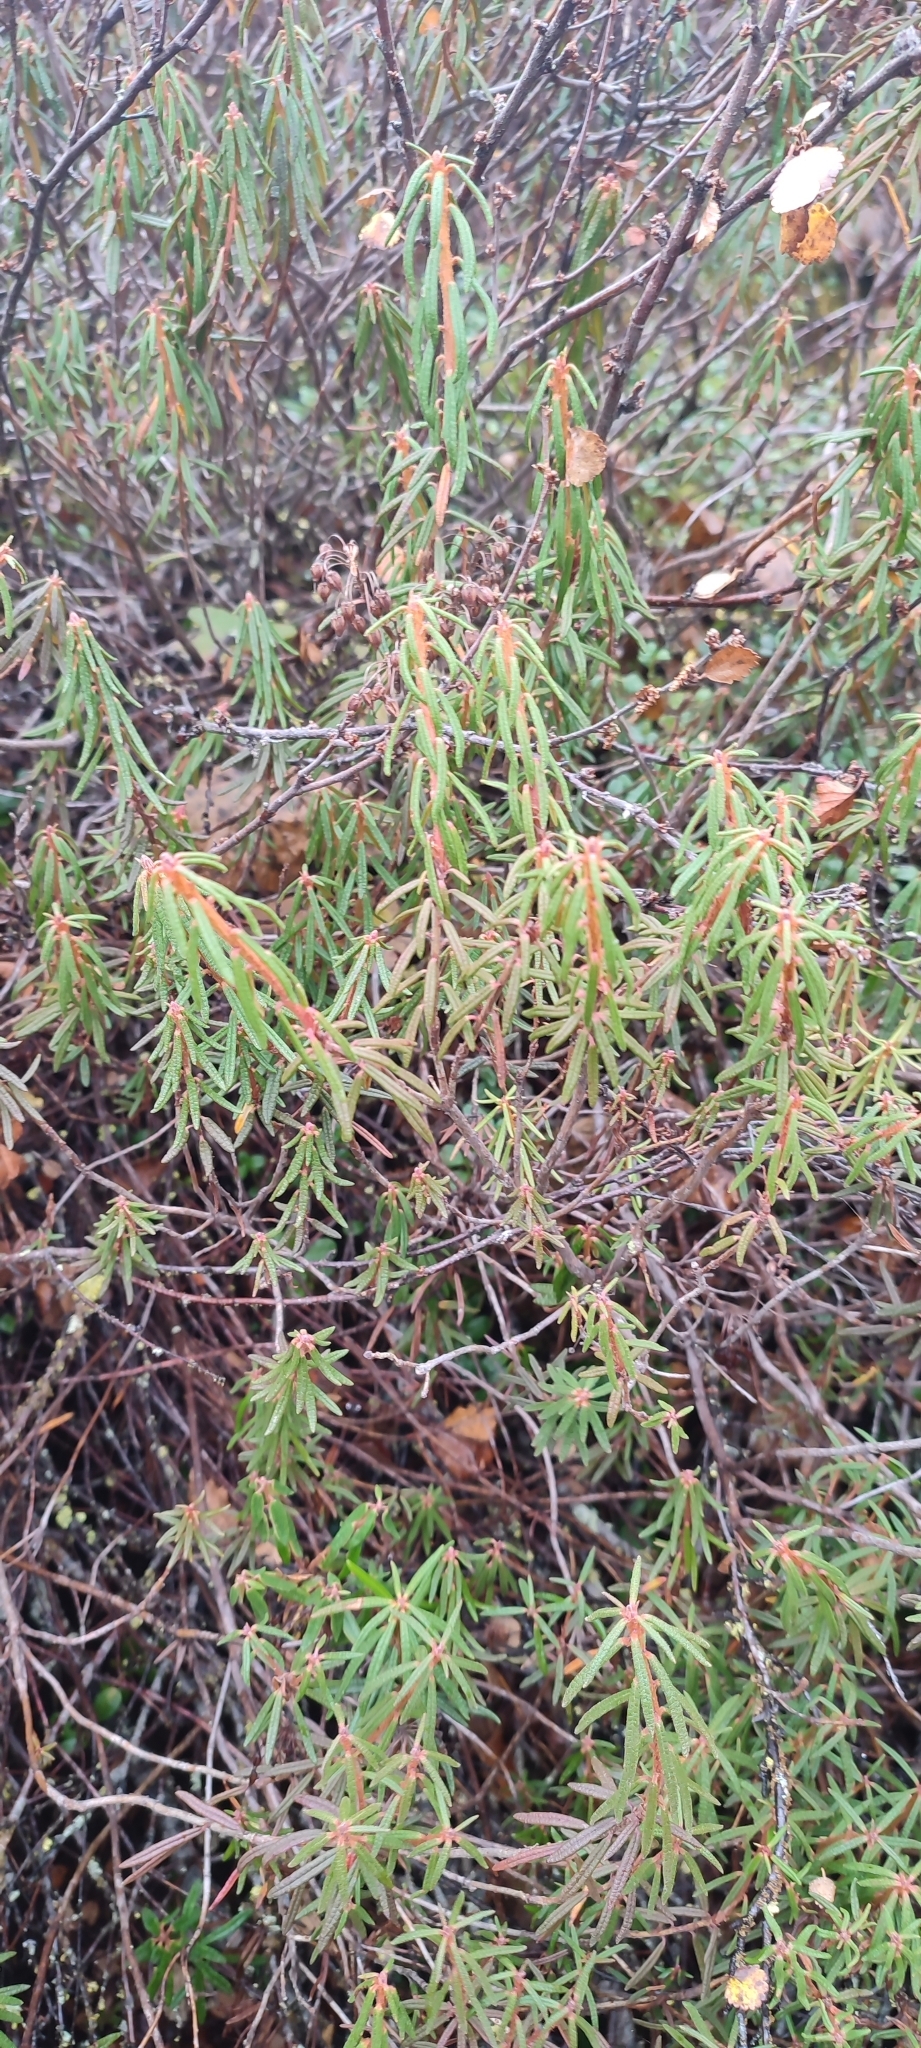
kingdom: Plantae
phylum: Tracheophyta
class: Magnoliopsida
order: Ericales
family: Ericaceae
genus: Rhododendron
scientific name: Rhododendron tomentosum
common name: Marsh labrador tea
